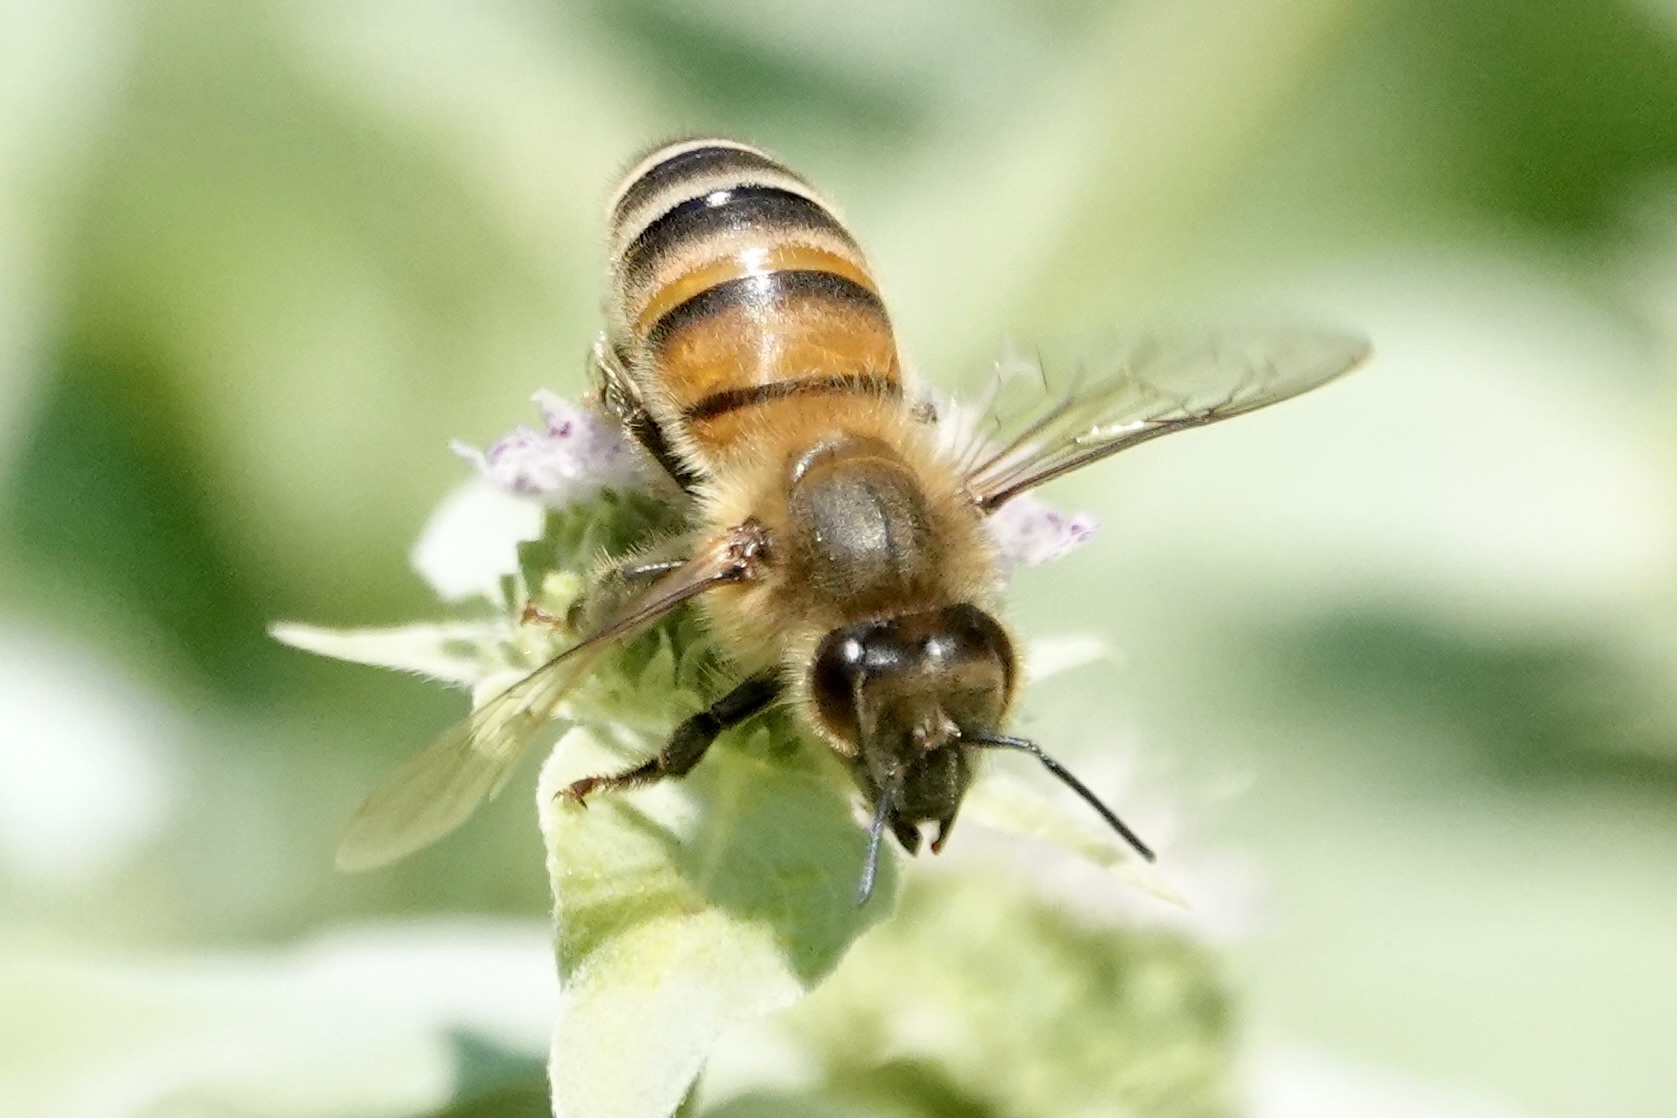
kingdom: Animalia
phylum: Arthropoda
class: Insecta
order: Hymenoptera
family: Apidae
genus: Apis
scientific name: Apis mellifera
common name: Honey bee
